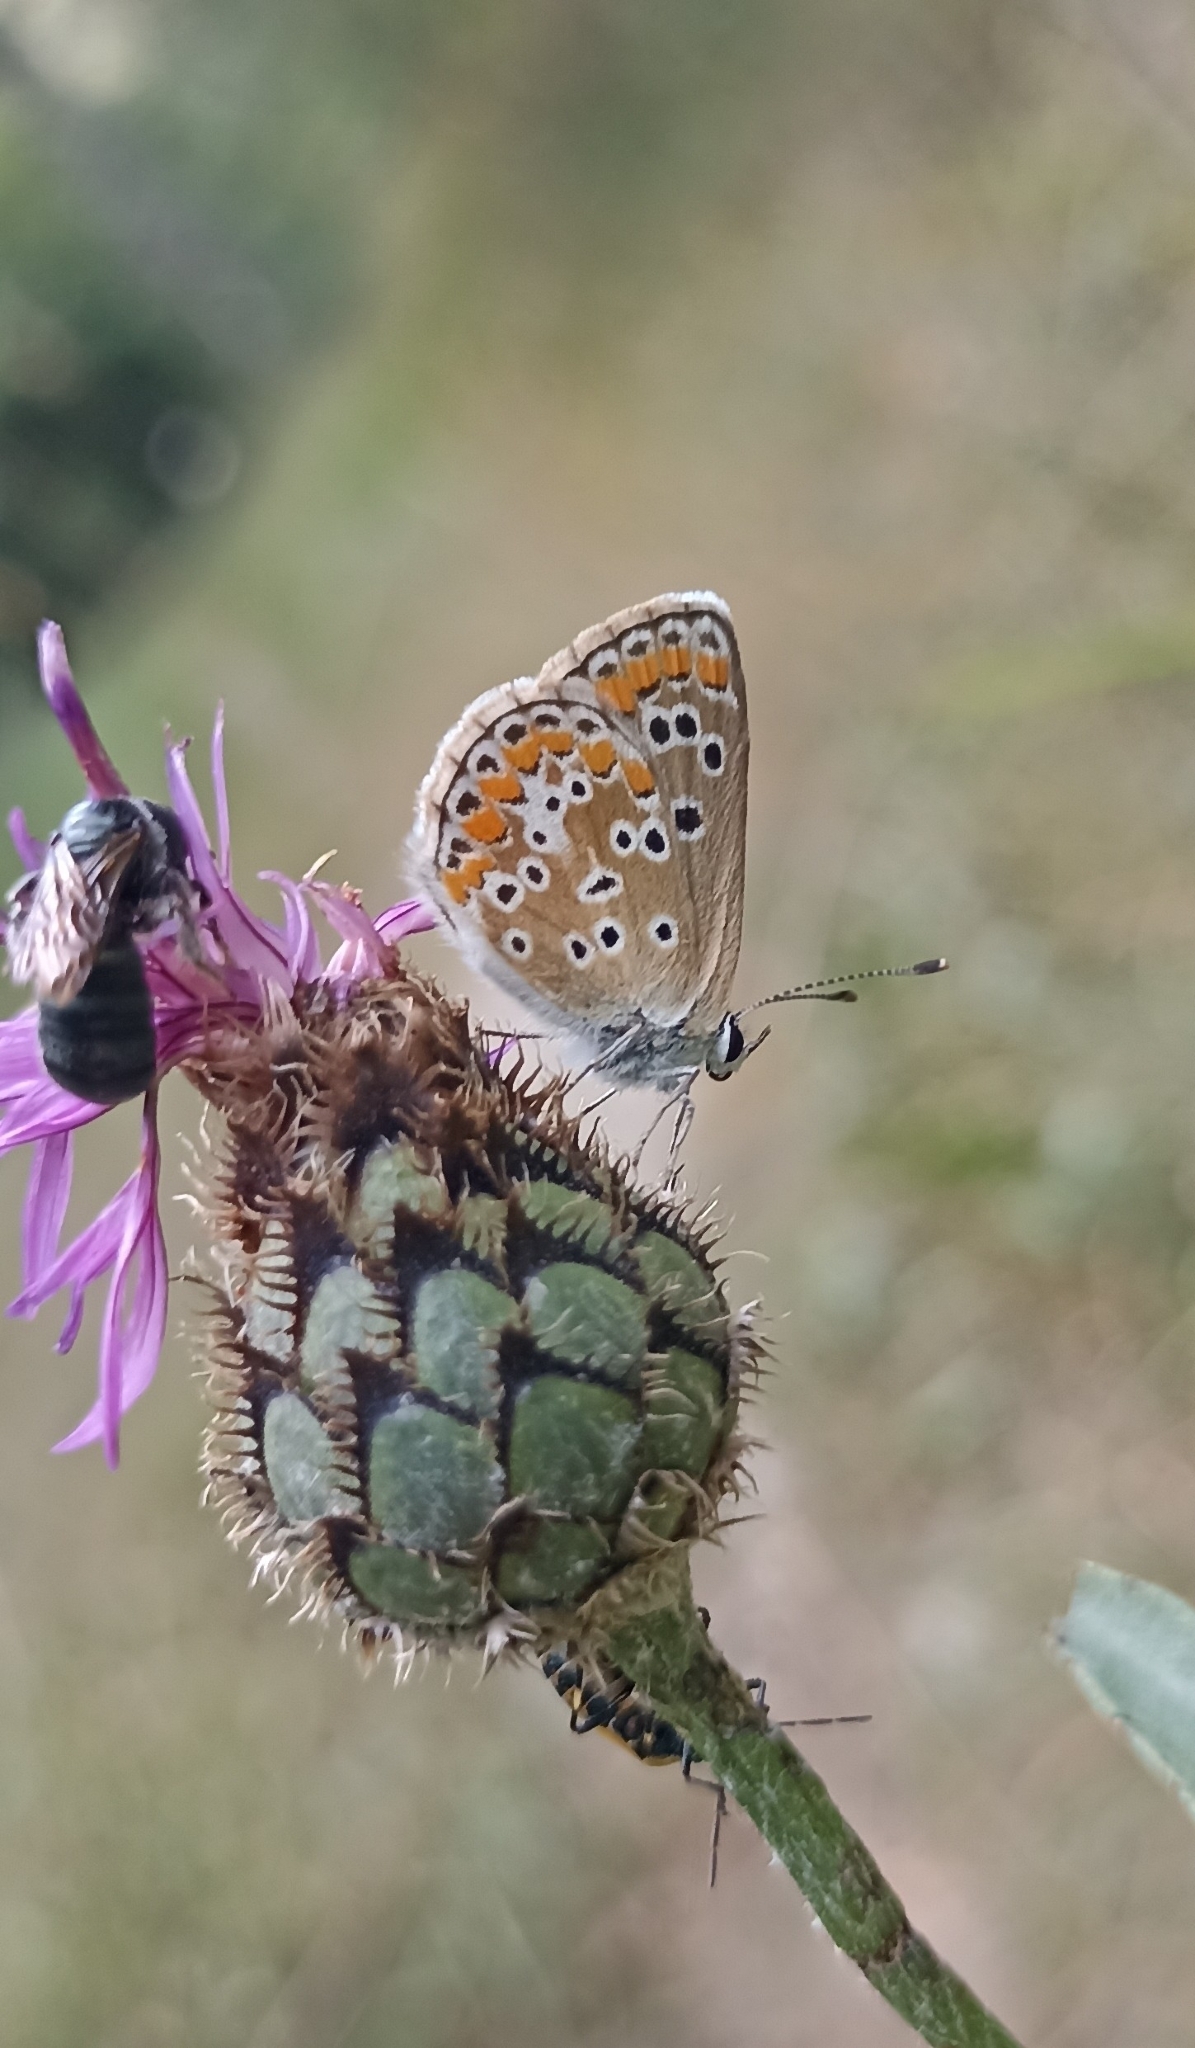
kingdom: Animalia
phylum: Arthropoda
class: Insecta
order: Lepidoptera
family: Lycaenidae
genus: Aricia
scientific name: Aricia agestis
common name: Brown argus
